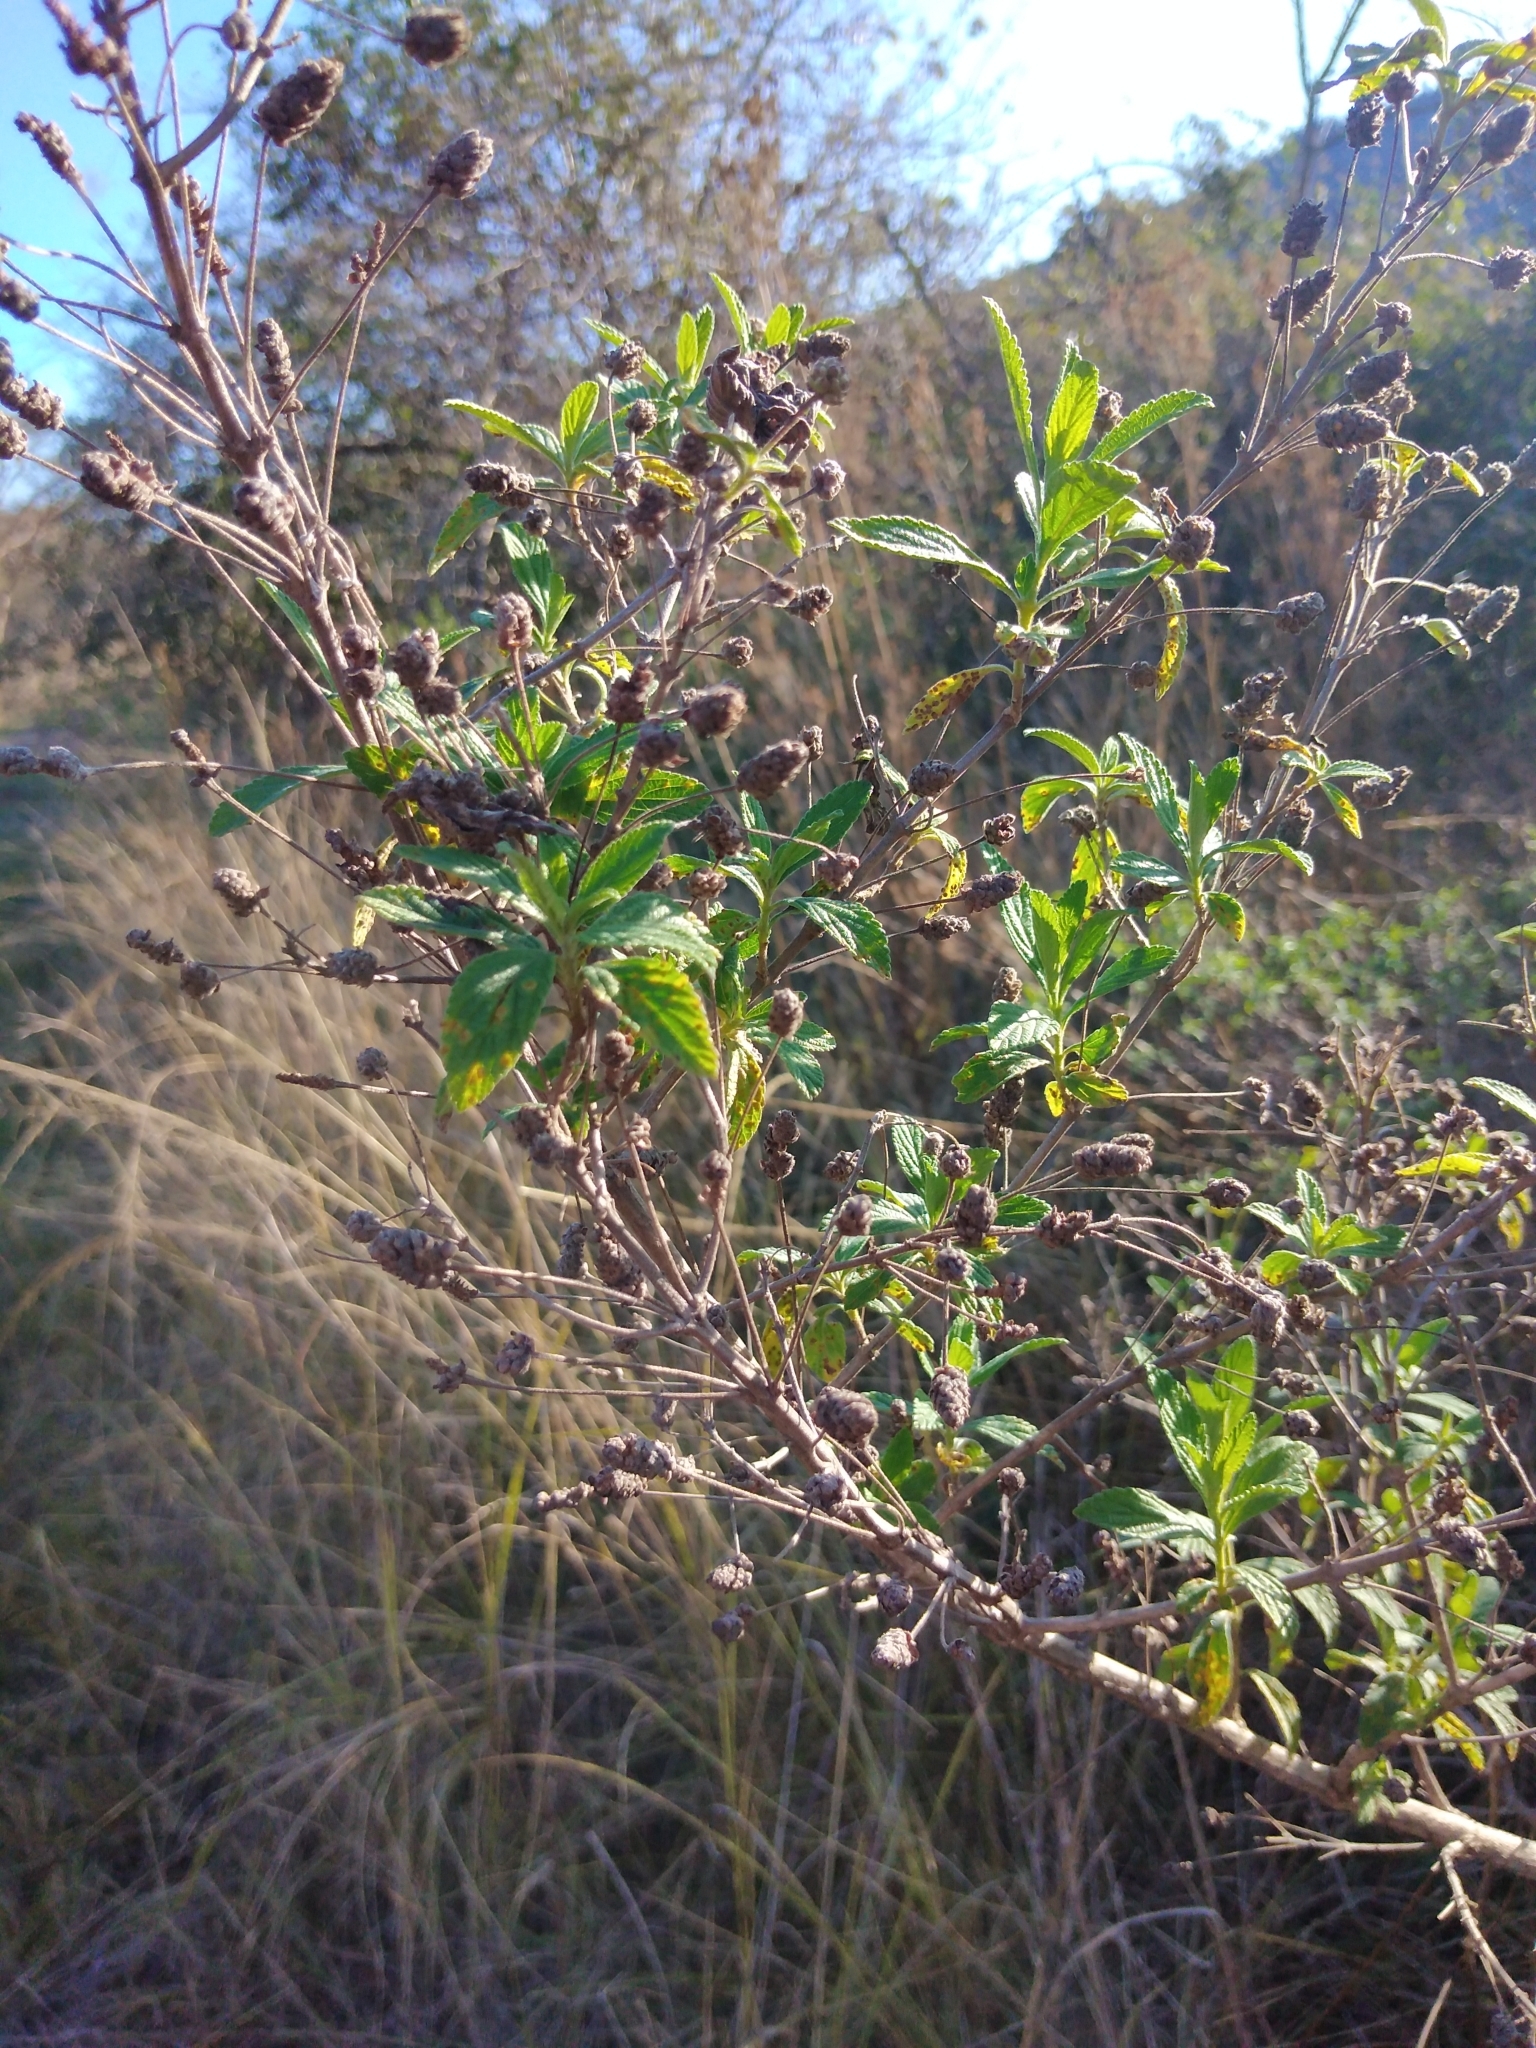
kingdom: Plantae
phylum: Tracheophyta
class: Magnoliopsida
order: Lamiales
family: Verbenaceae
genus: Lippia
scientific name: Lippia javanica
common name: Lemonbush
